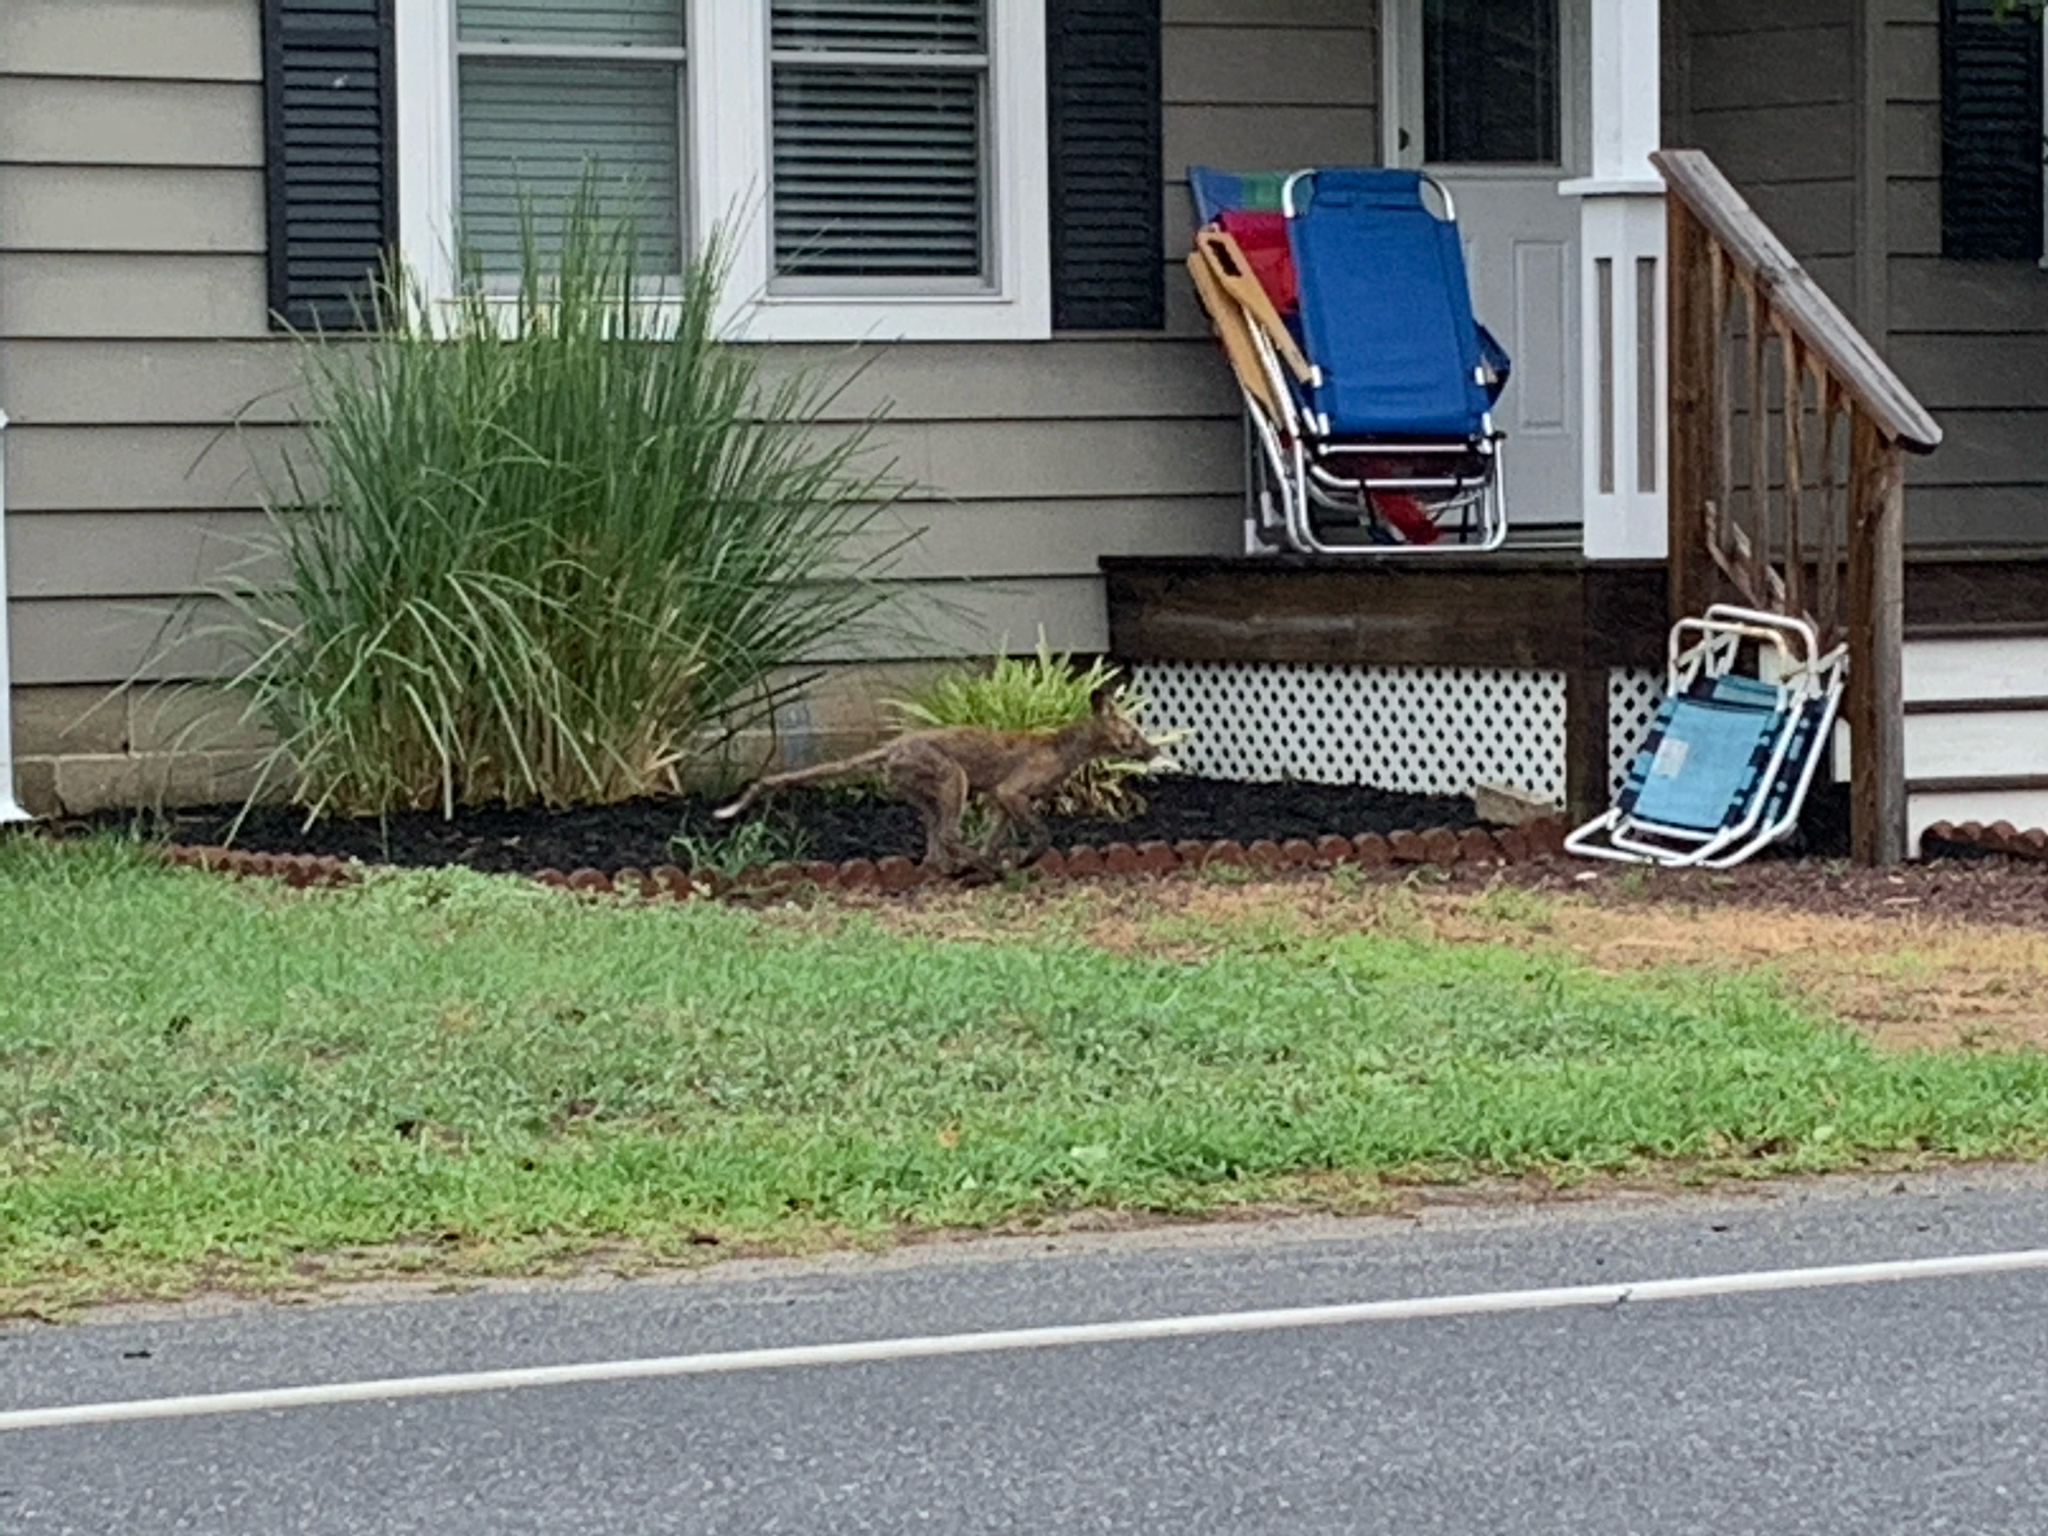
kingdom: Animalia
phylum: Chordata
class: Mammalia
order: Carnivora
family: Canidae
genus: Vulpes
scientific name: Vulpes vulpes
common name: Red fox
